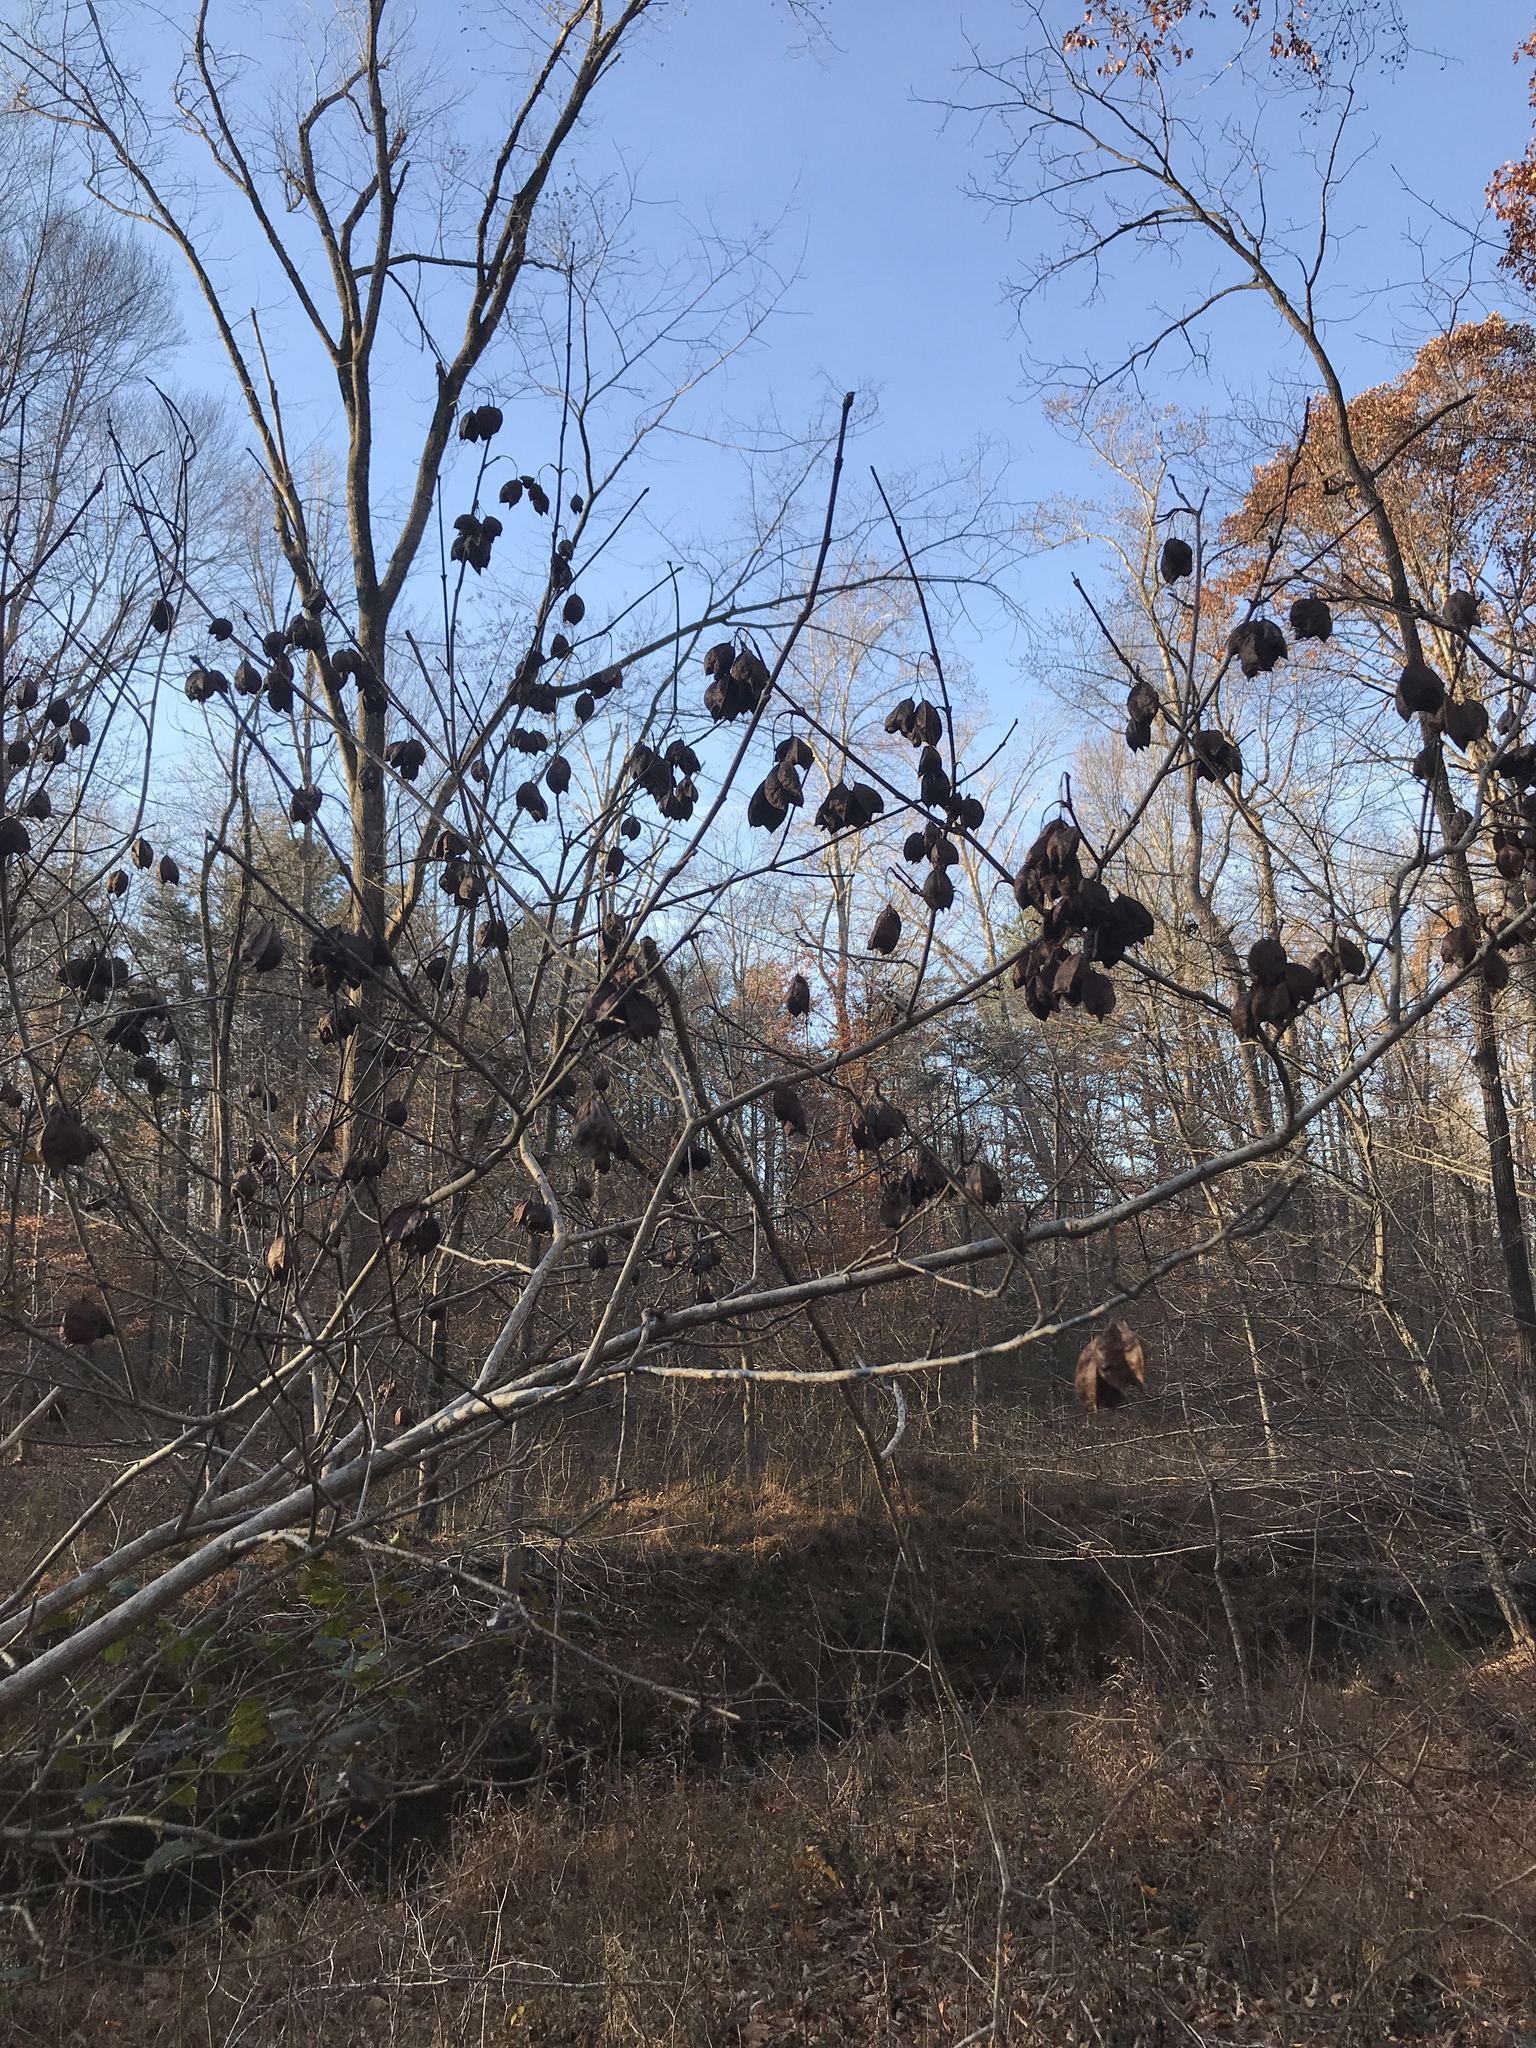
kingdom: Plantae
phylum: Tracheophyta
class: Magnoliopsida
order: Crossosomatales
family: Staphyleaceae
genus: Staphylea
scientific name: Staphylea trifolia
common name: American bladdernut
